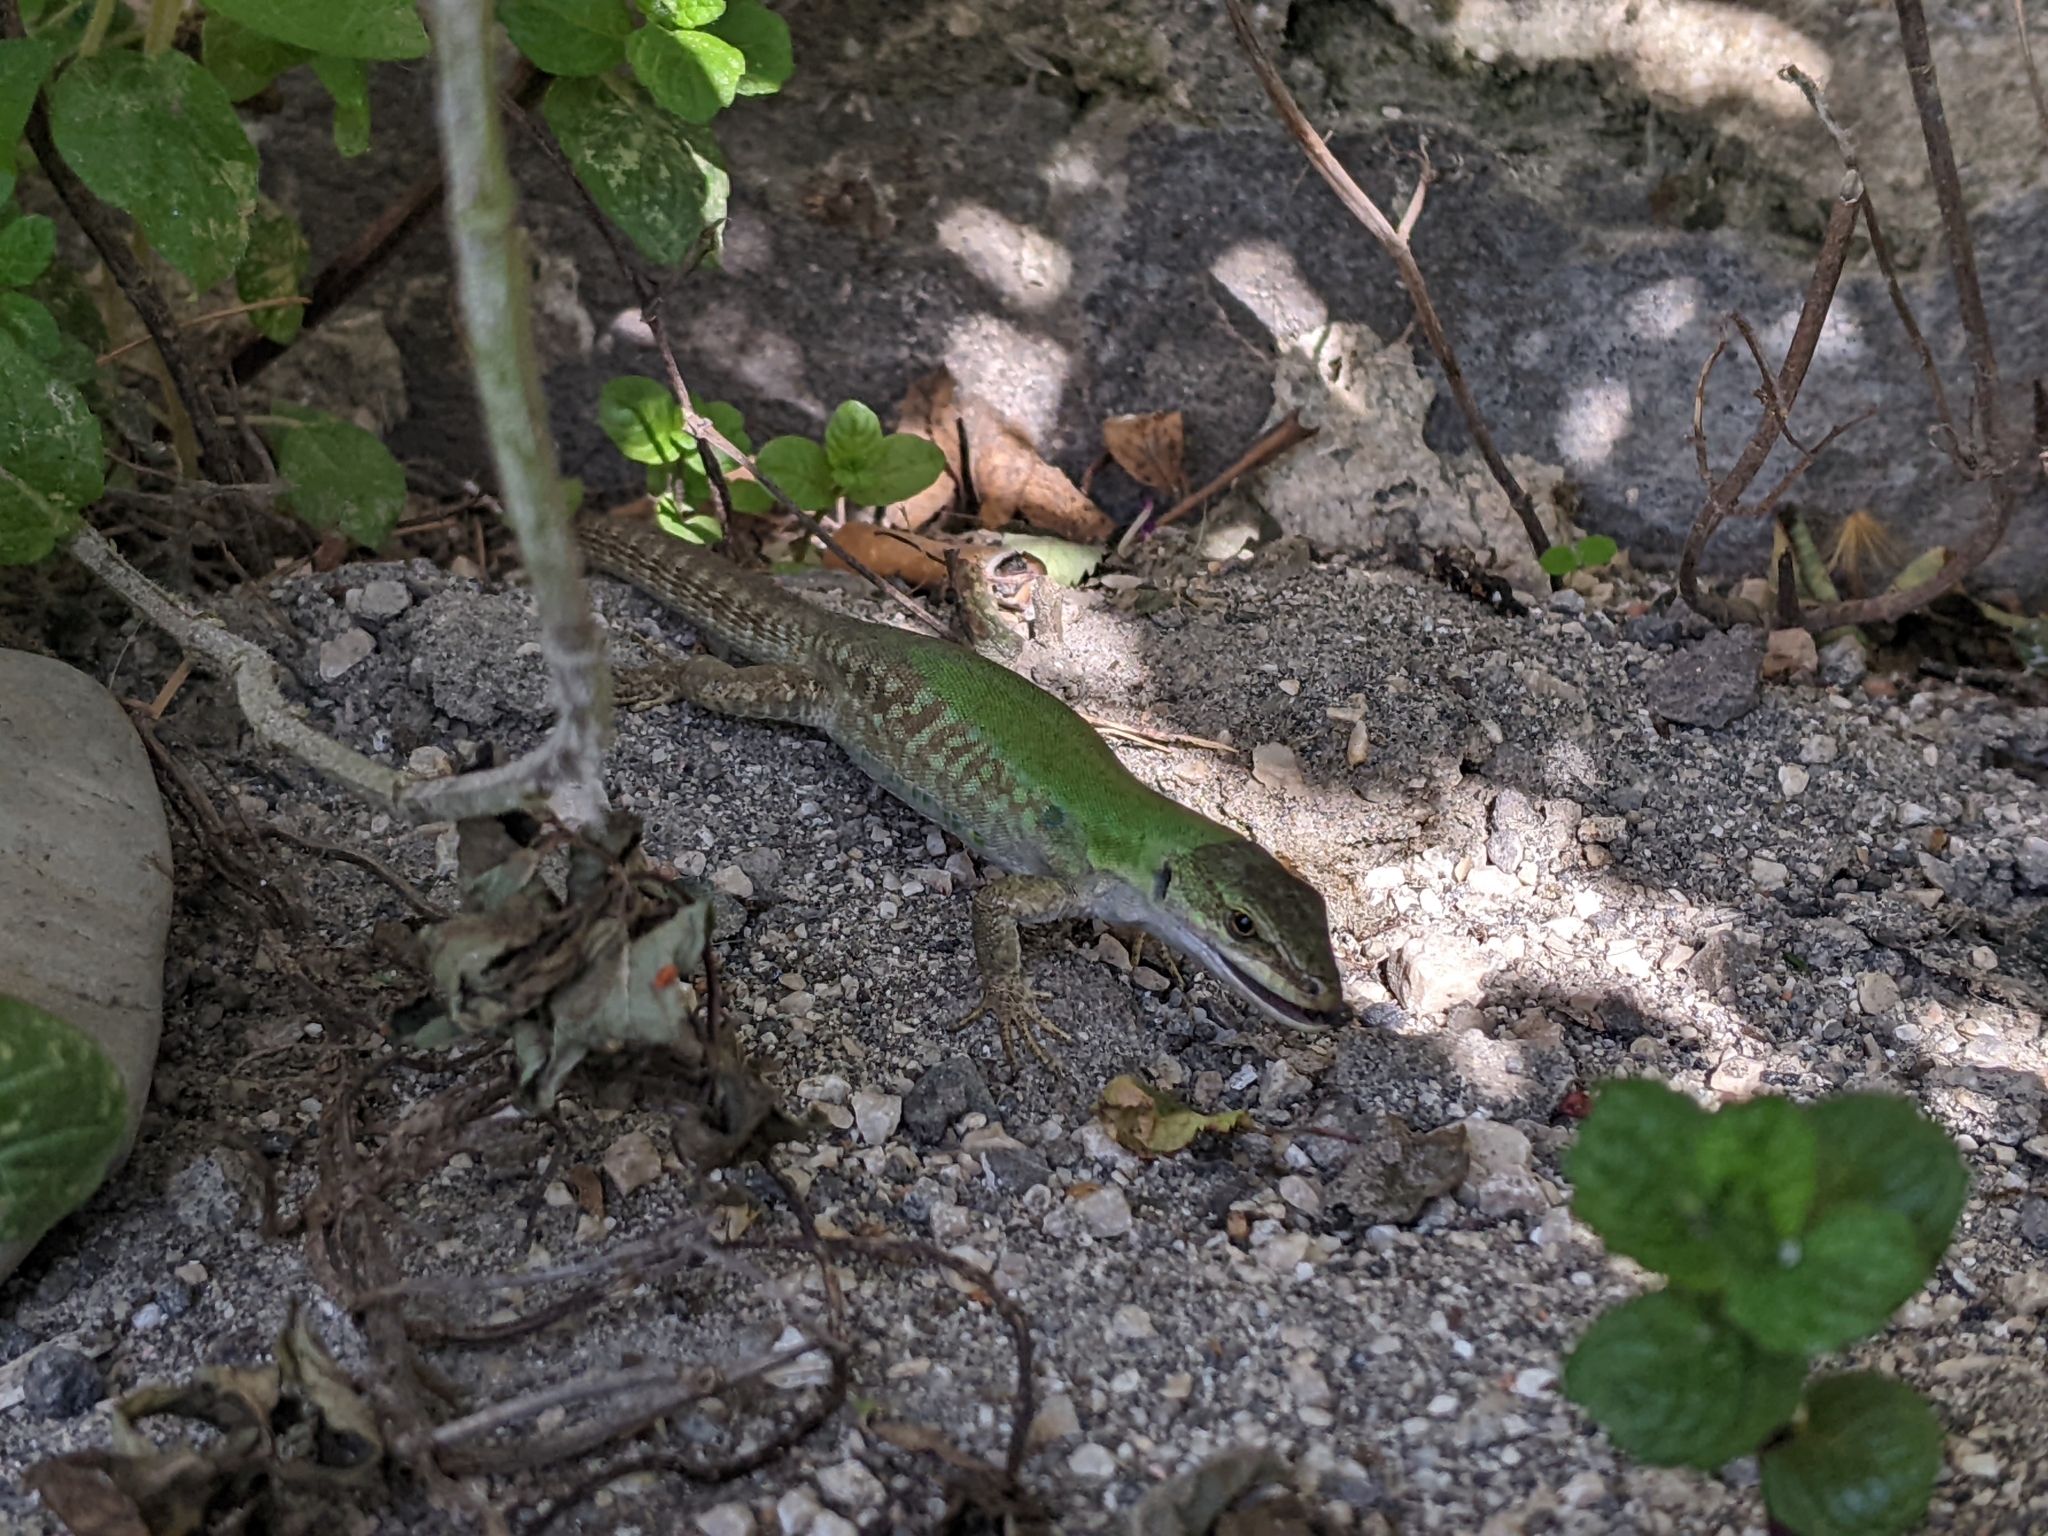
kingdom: Animalia
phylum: Chordata
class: Squamata
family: Lacertidae
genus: Podarcis
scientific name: Podarcis siculus
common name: Italian wall lizard
